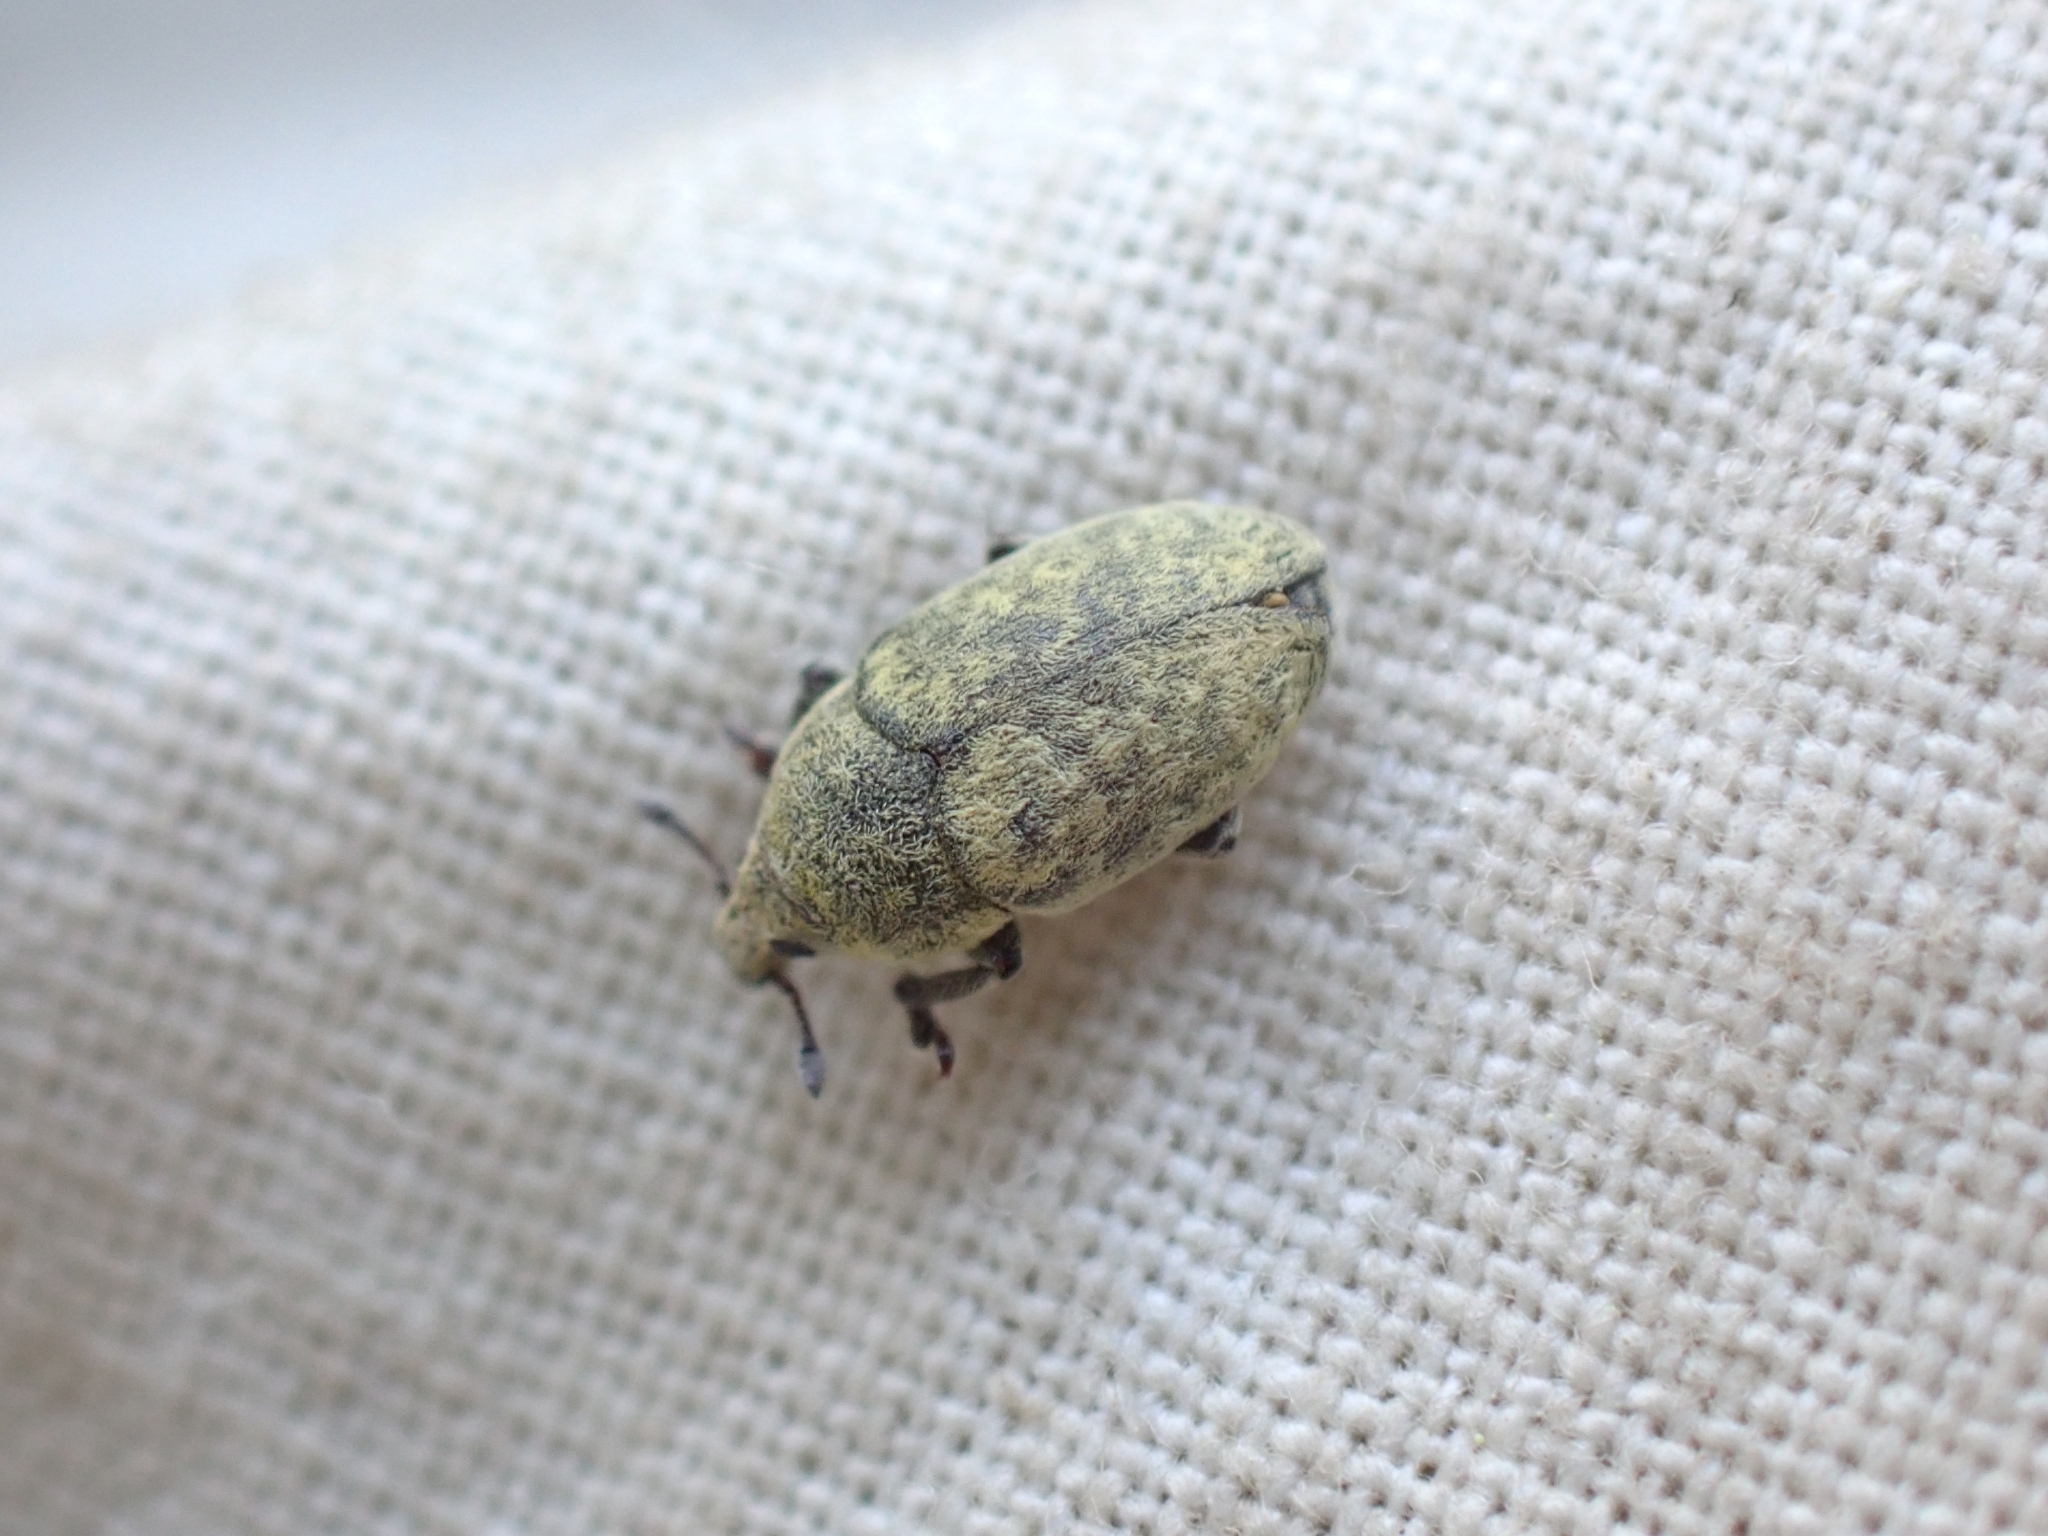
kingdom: Animalia
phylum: Arthropoda
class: Insecta
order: Coleoptera
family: Curculionidae
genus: Larinus
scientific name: Larinus minutus
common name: Weevil
